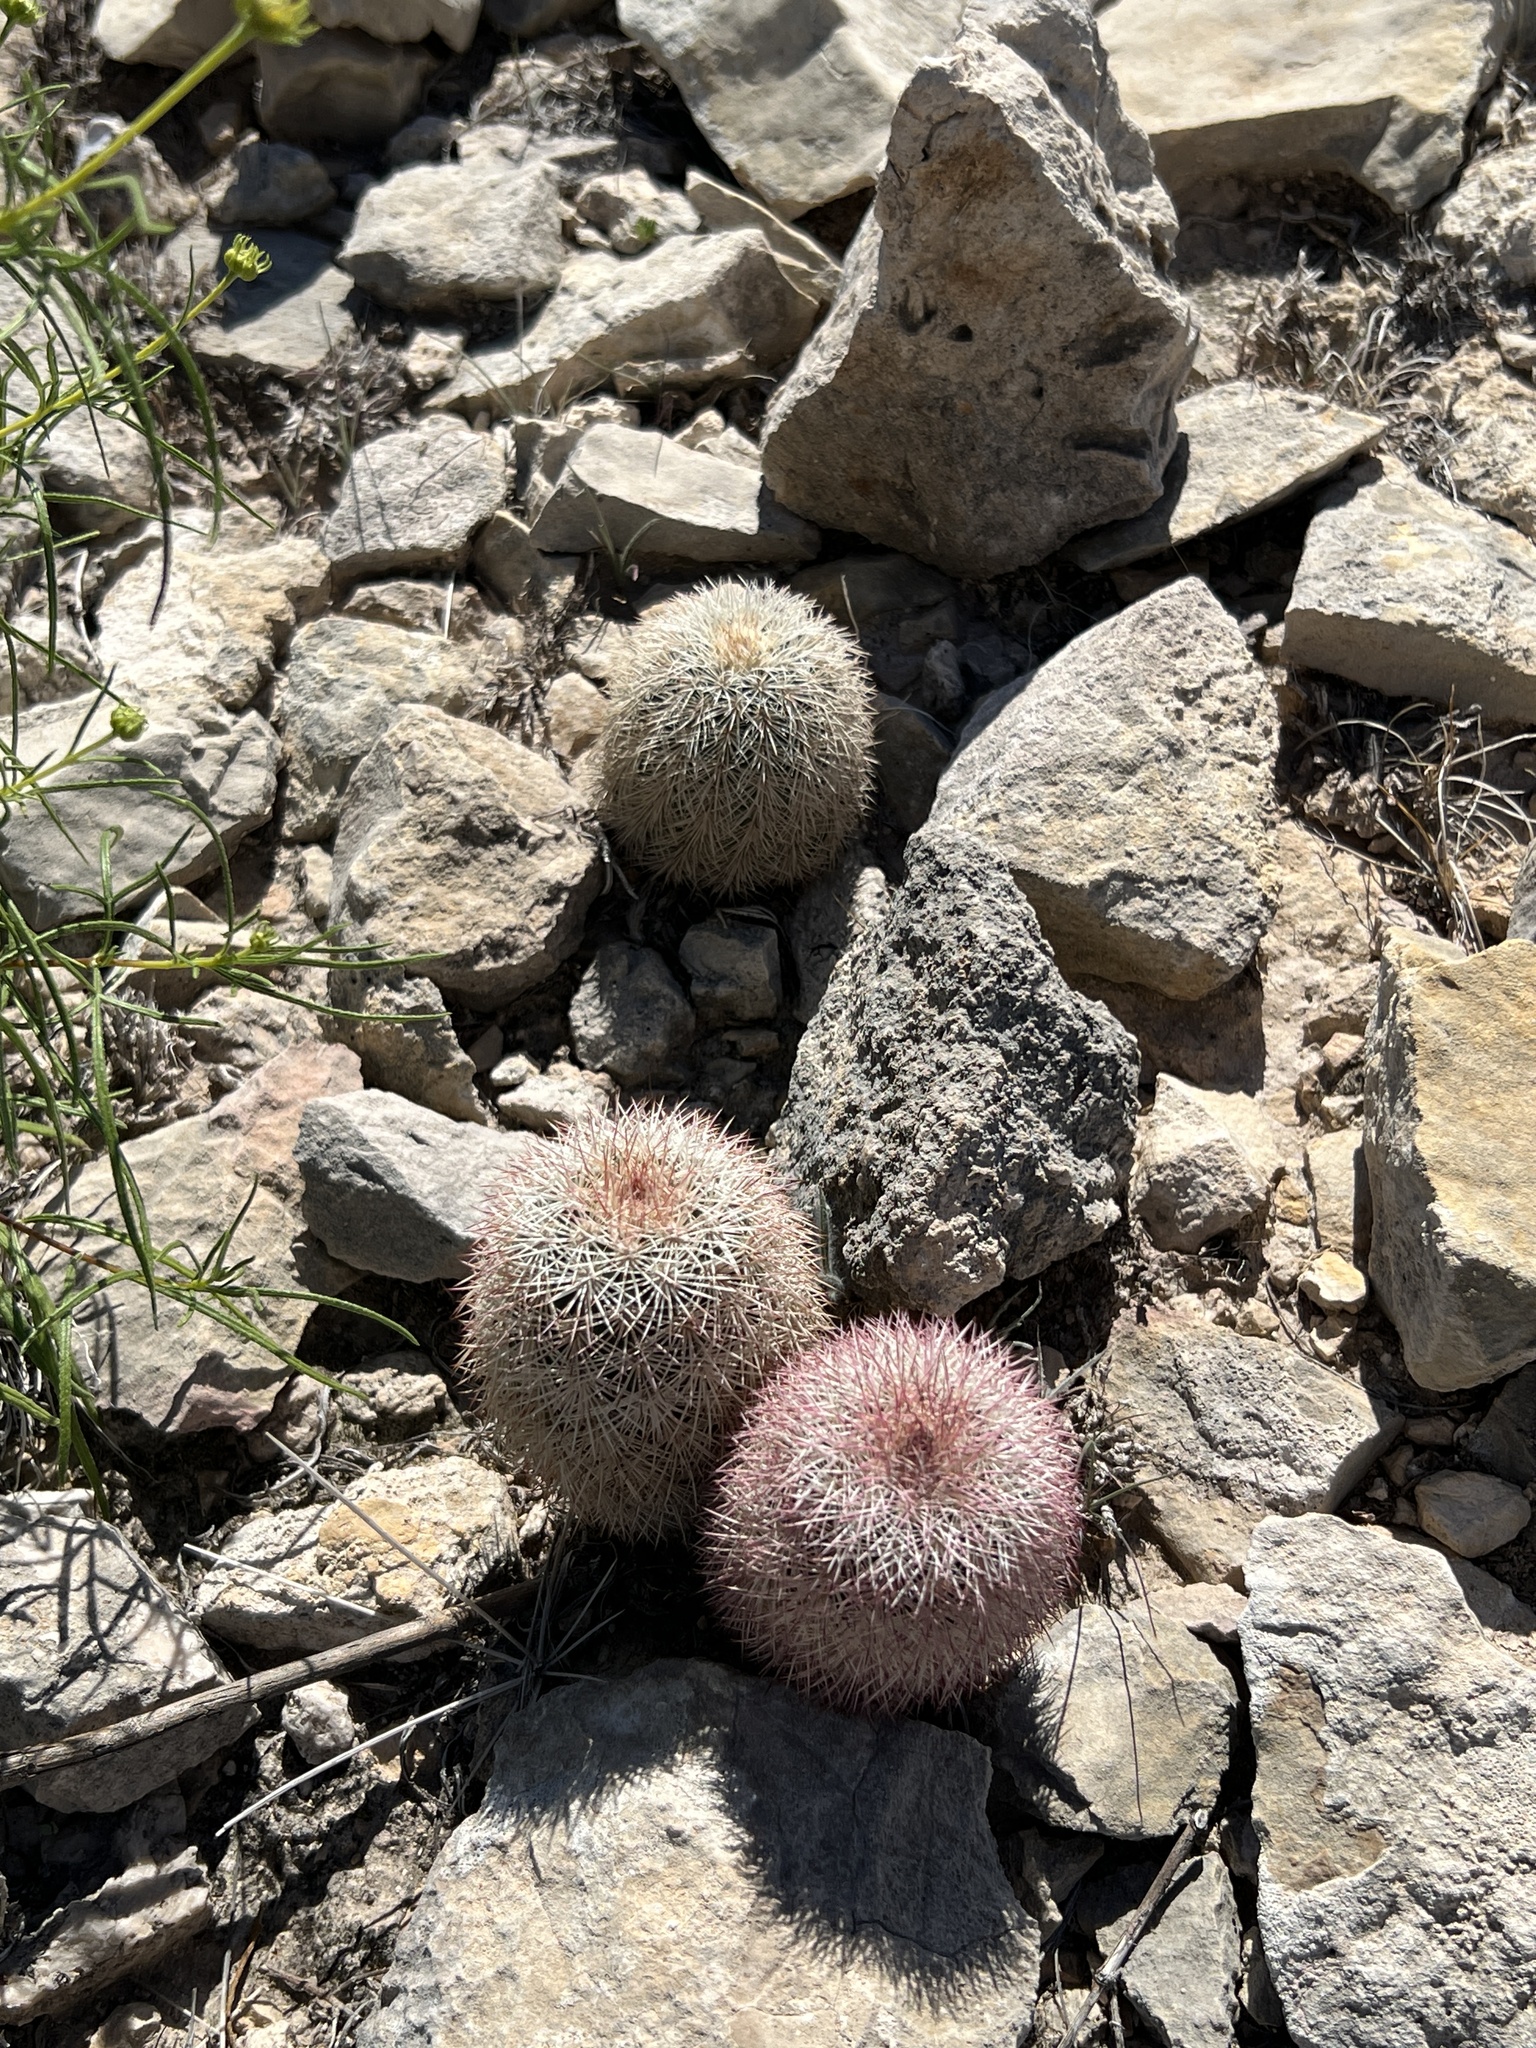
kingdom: Plantae
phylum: Tracheophyta
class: Magnoliopsida
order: Caryophyllales
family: Cactaceae
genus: Echinocereus
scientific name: Echinocereus dasyacanthus
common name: Spiny hedgehog cactus
